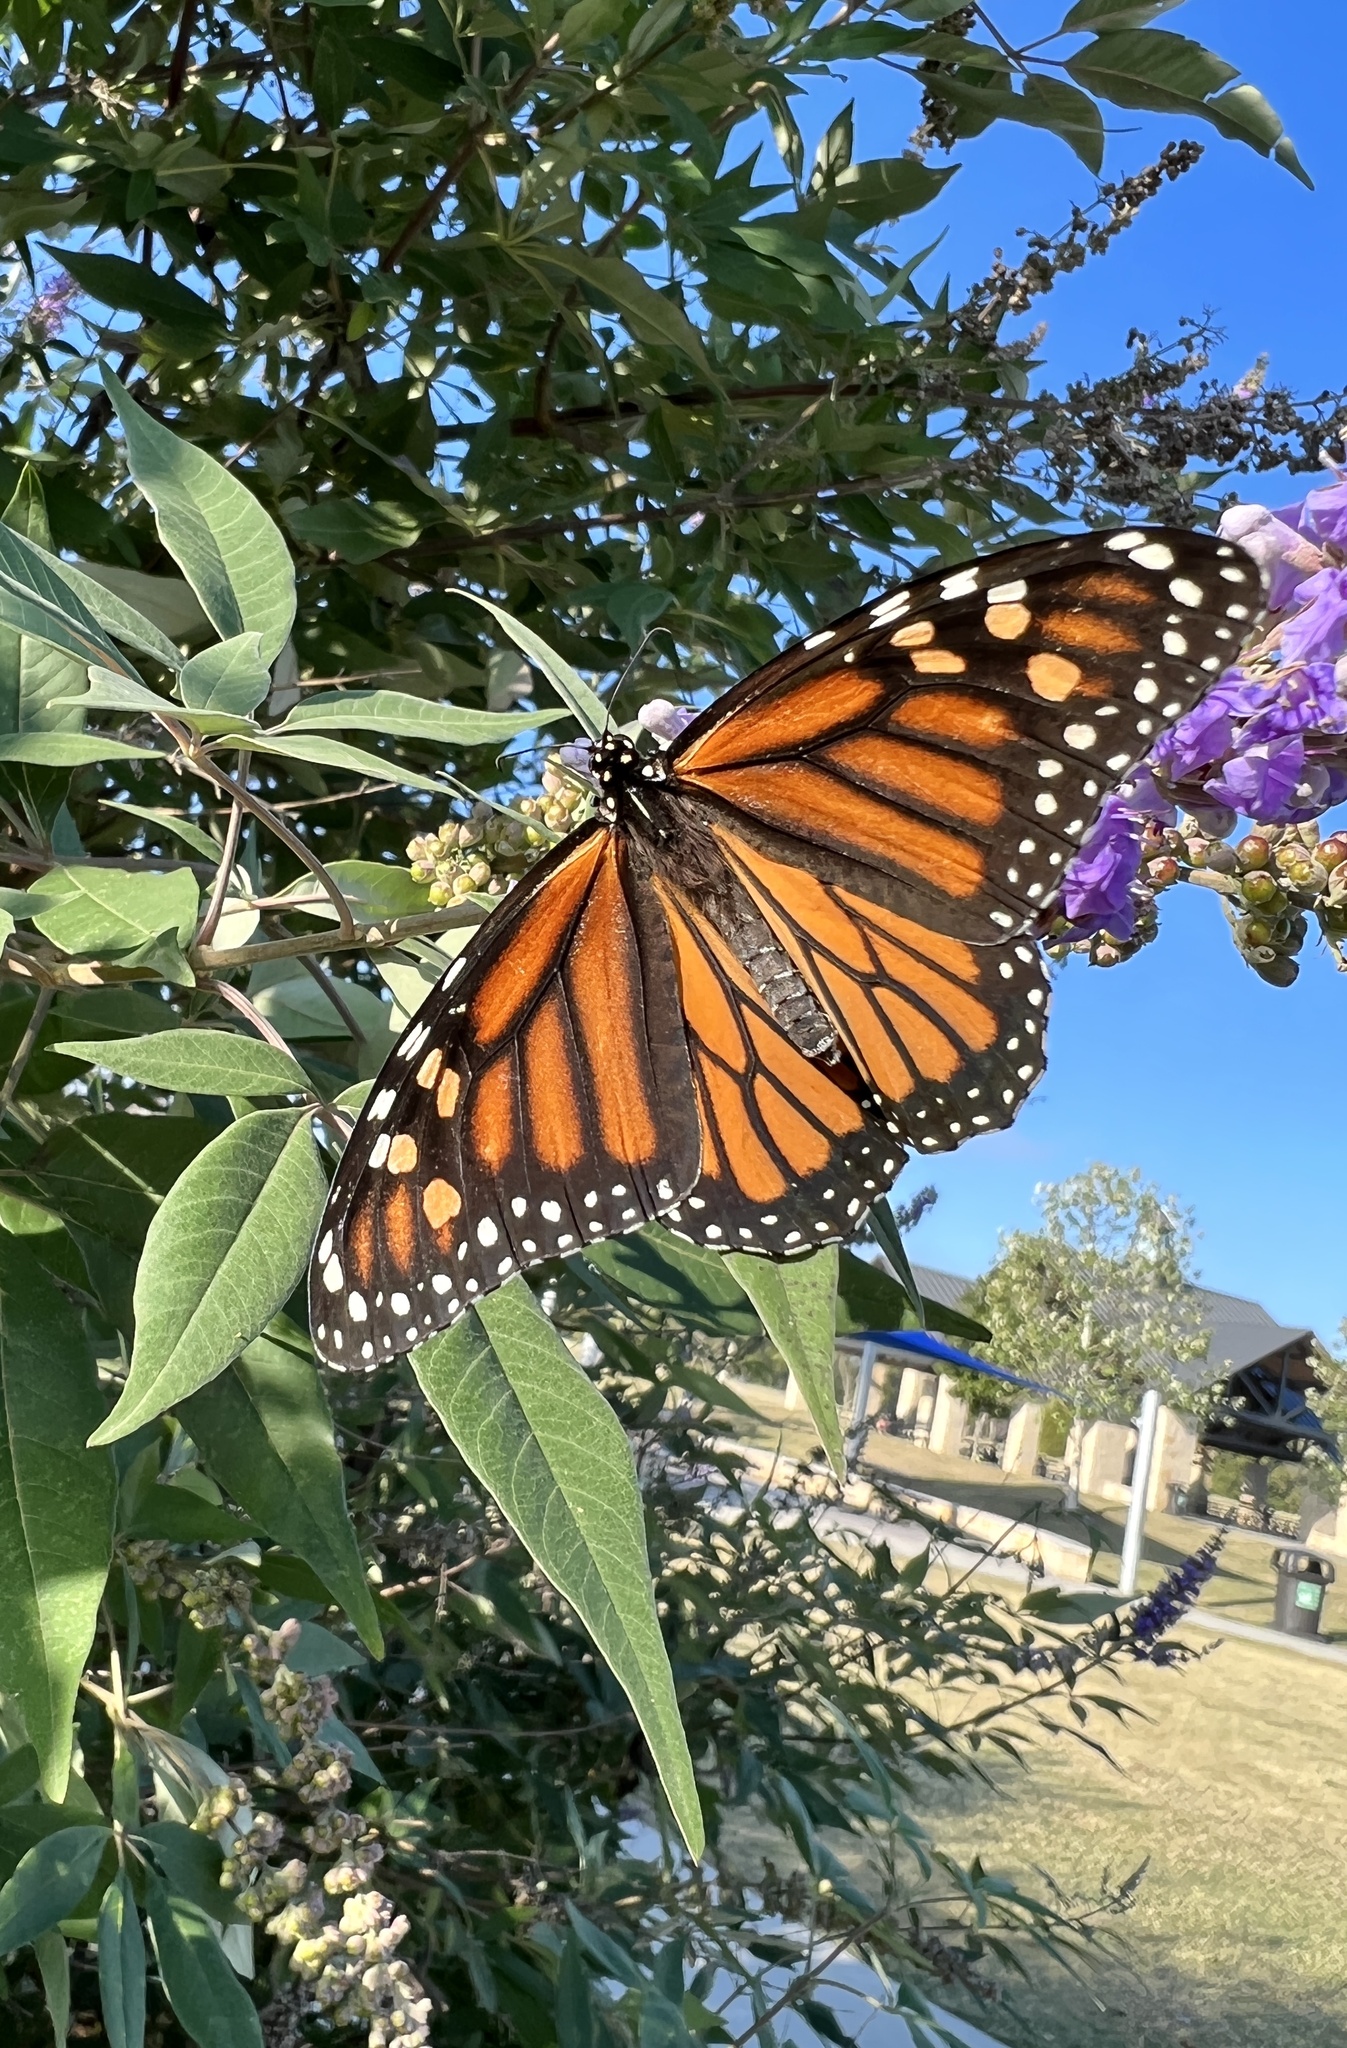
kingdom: Animalia
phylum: Arthropoda
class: Insecta
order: Lepidoptera
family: Nymphalidae
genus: Danaus
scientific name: Danaus plexippus
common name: Monarch
